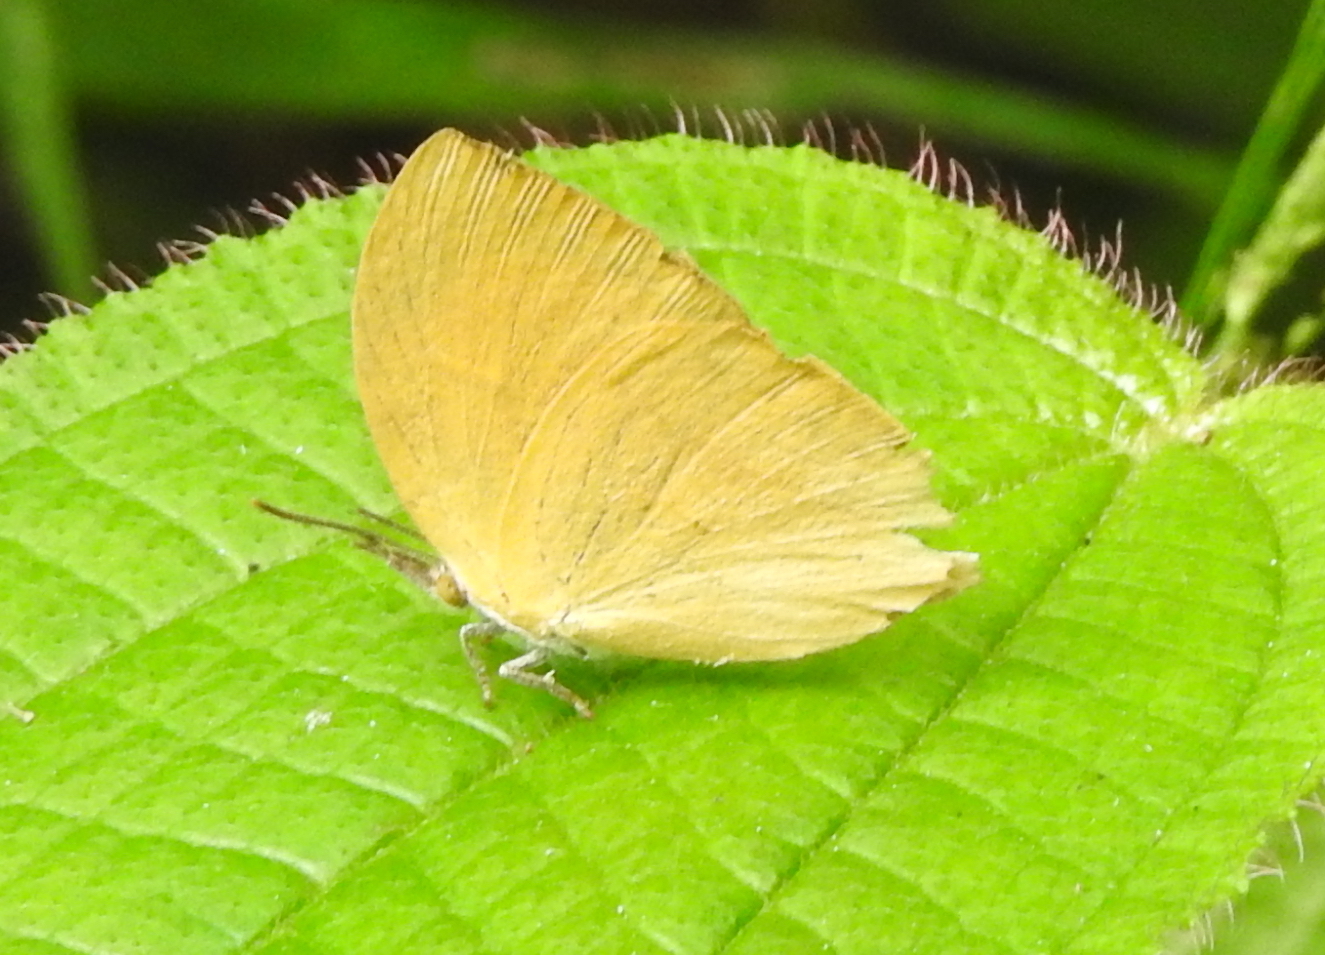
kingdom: Animalia
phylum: Arthropoda
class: Insecta
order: Lepidoptera
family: Lycaenidae
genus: Loxura
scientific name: Loxura atymnus
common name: Common yamfly
